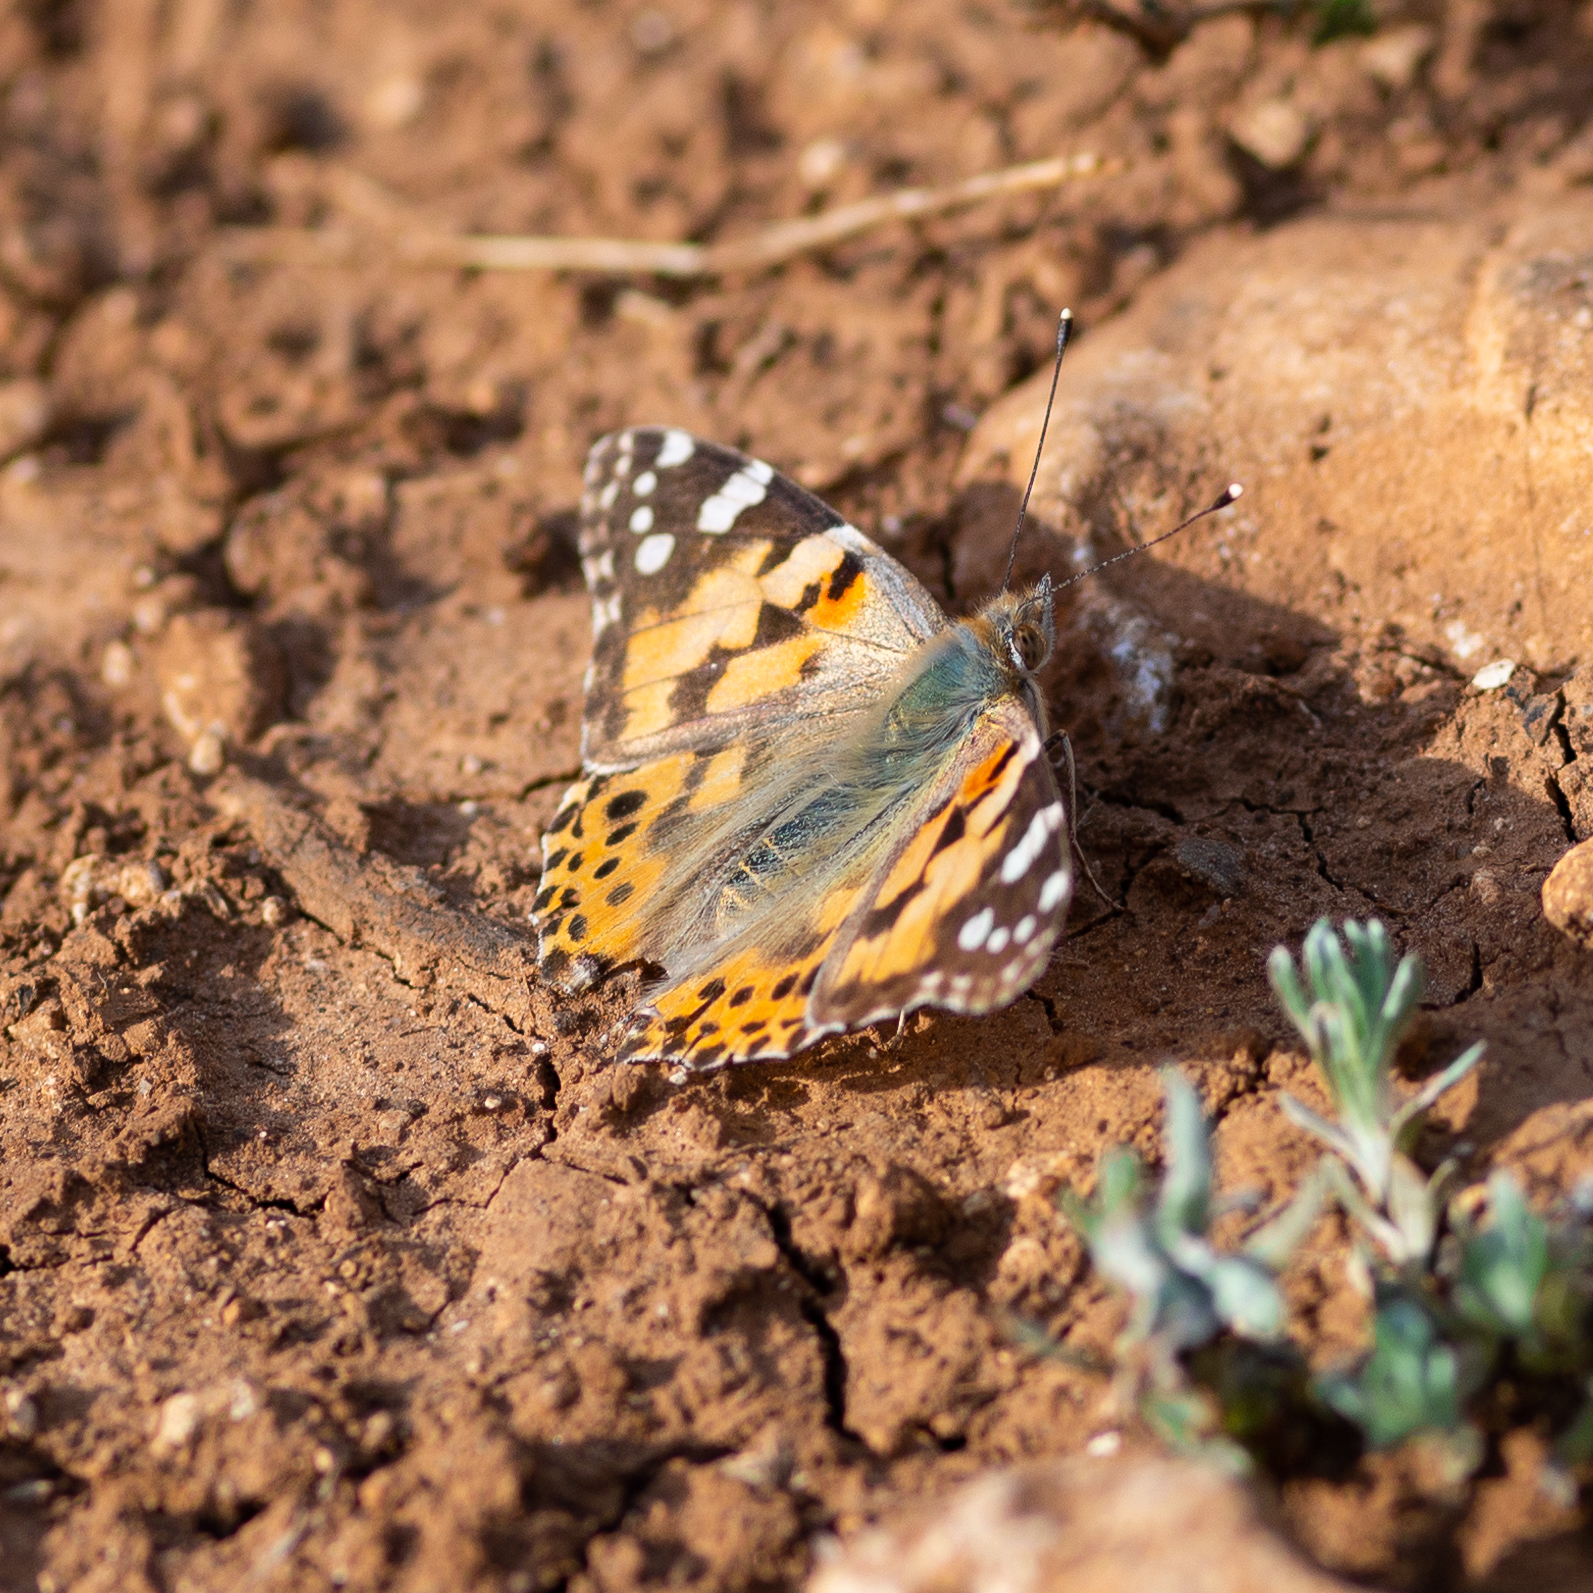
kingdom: Animalia
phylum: Arthropoda
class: Insecta
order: Lepidoptera
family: Nymphalidae
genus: Vanessa
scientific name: Vanessa cardui
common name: Painted lady
